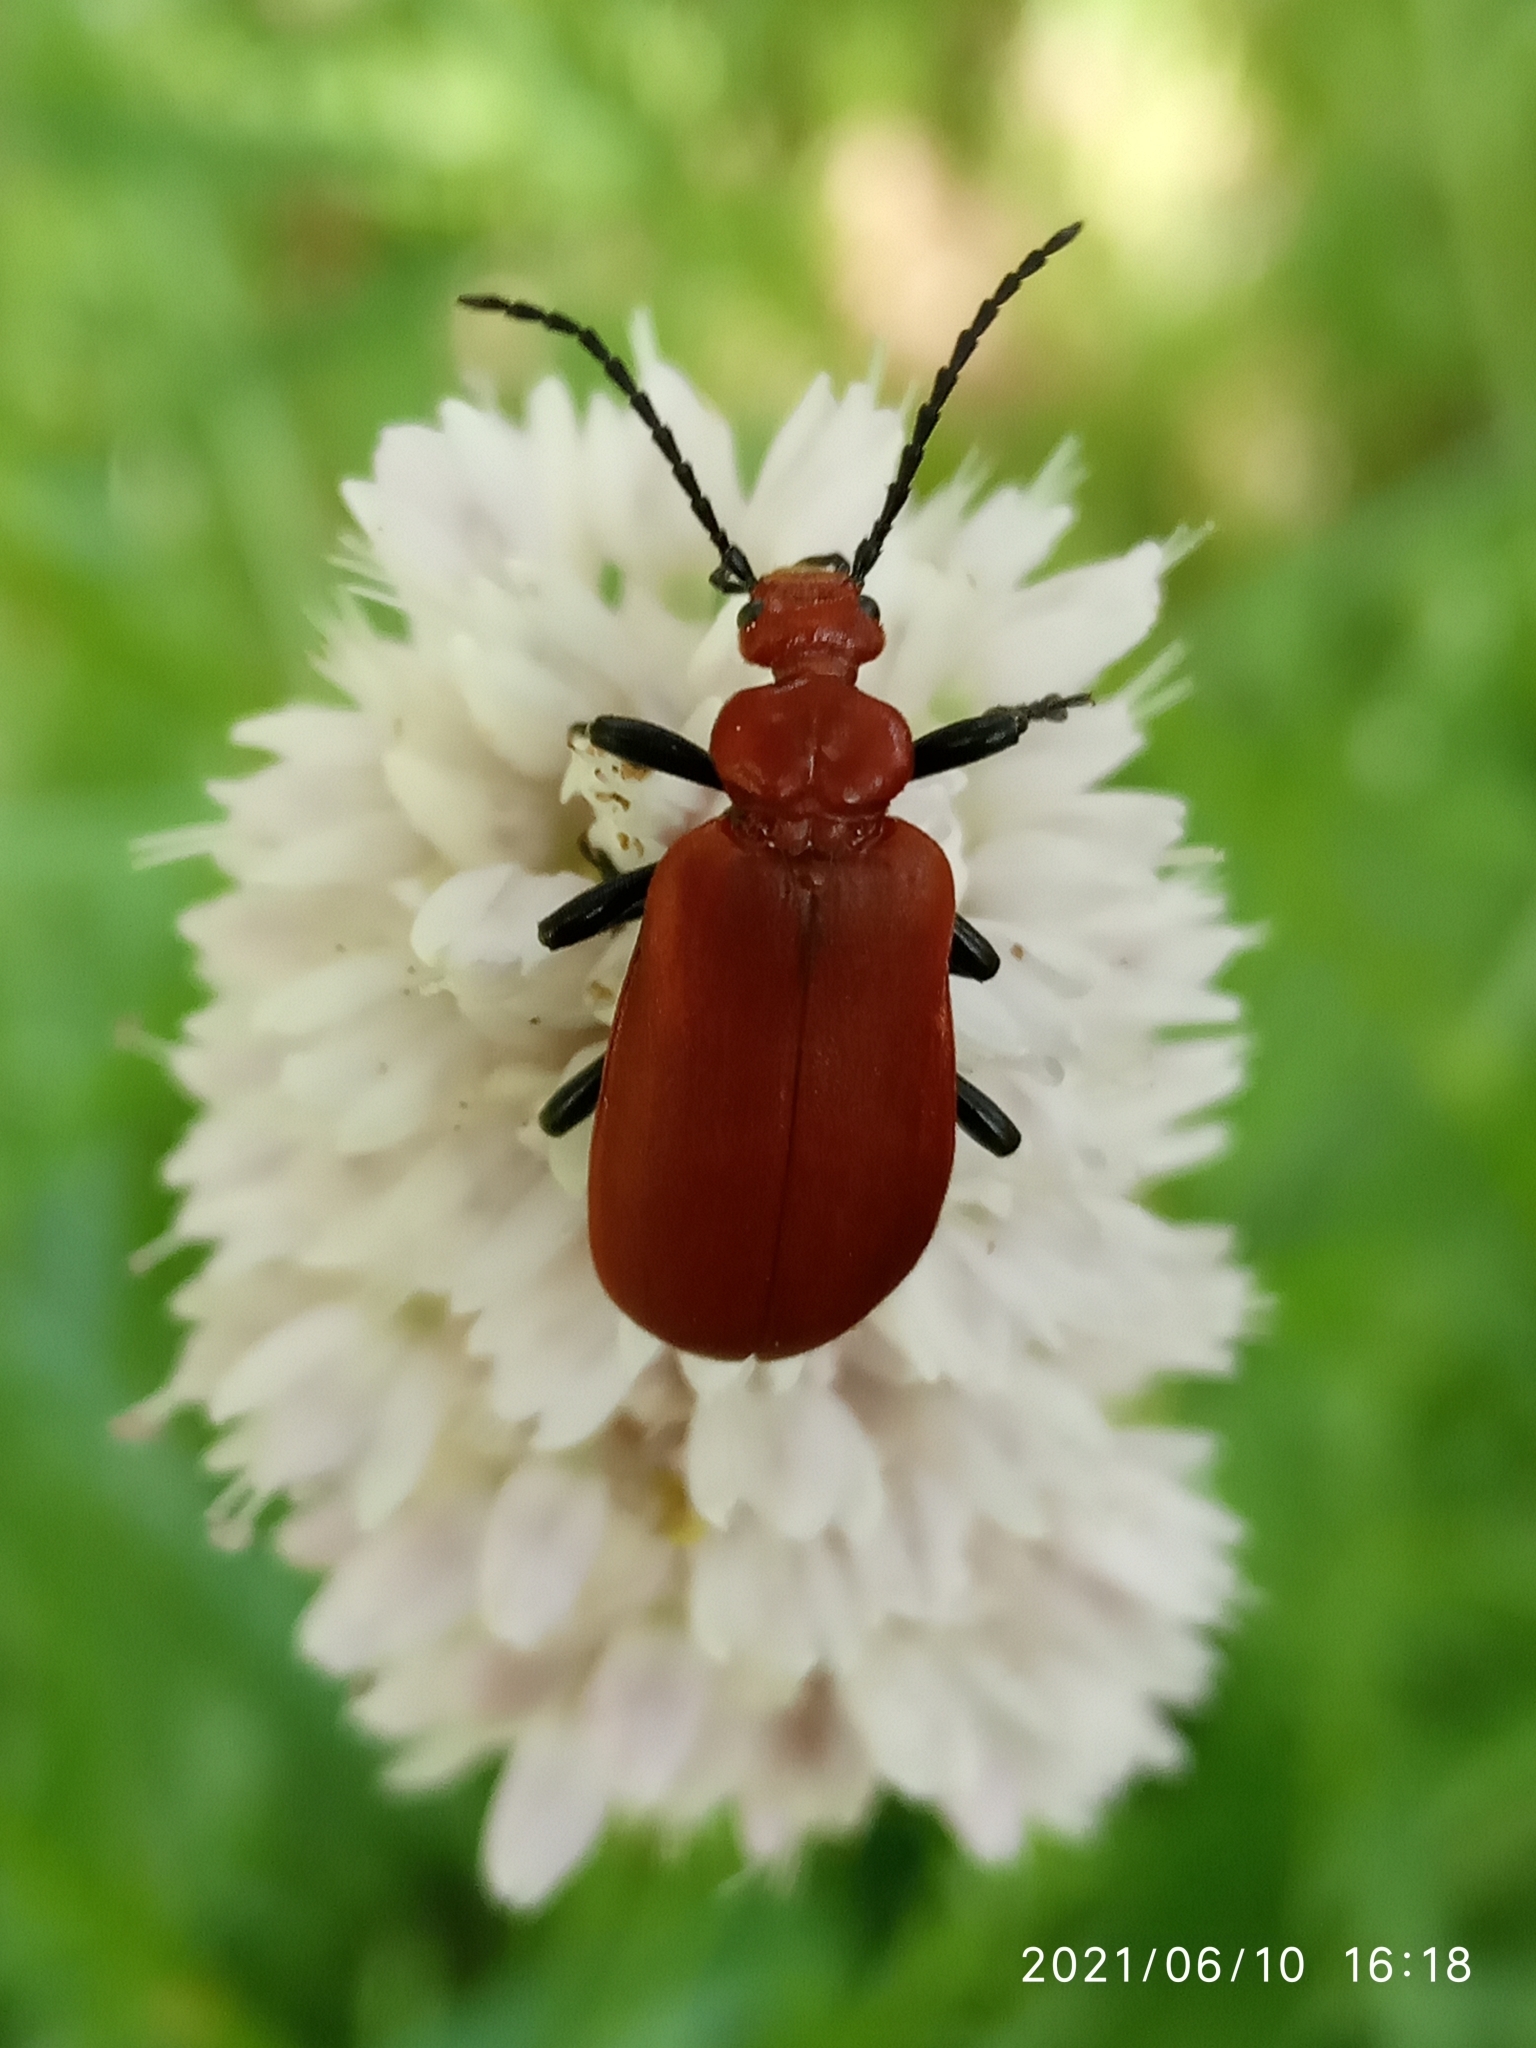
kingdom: Animalia
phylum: Arthropoda
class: Insecta
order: Coleoptera
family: Pyrochroidae
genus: Pyrochroa
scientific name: Pyrochroa serraticornis
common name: Red-headed cardinal beetle
